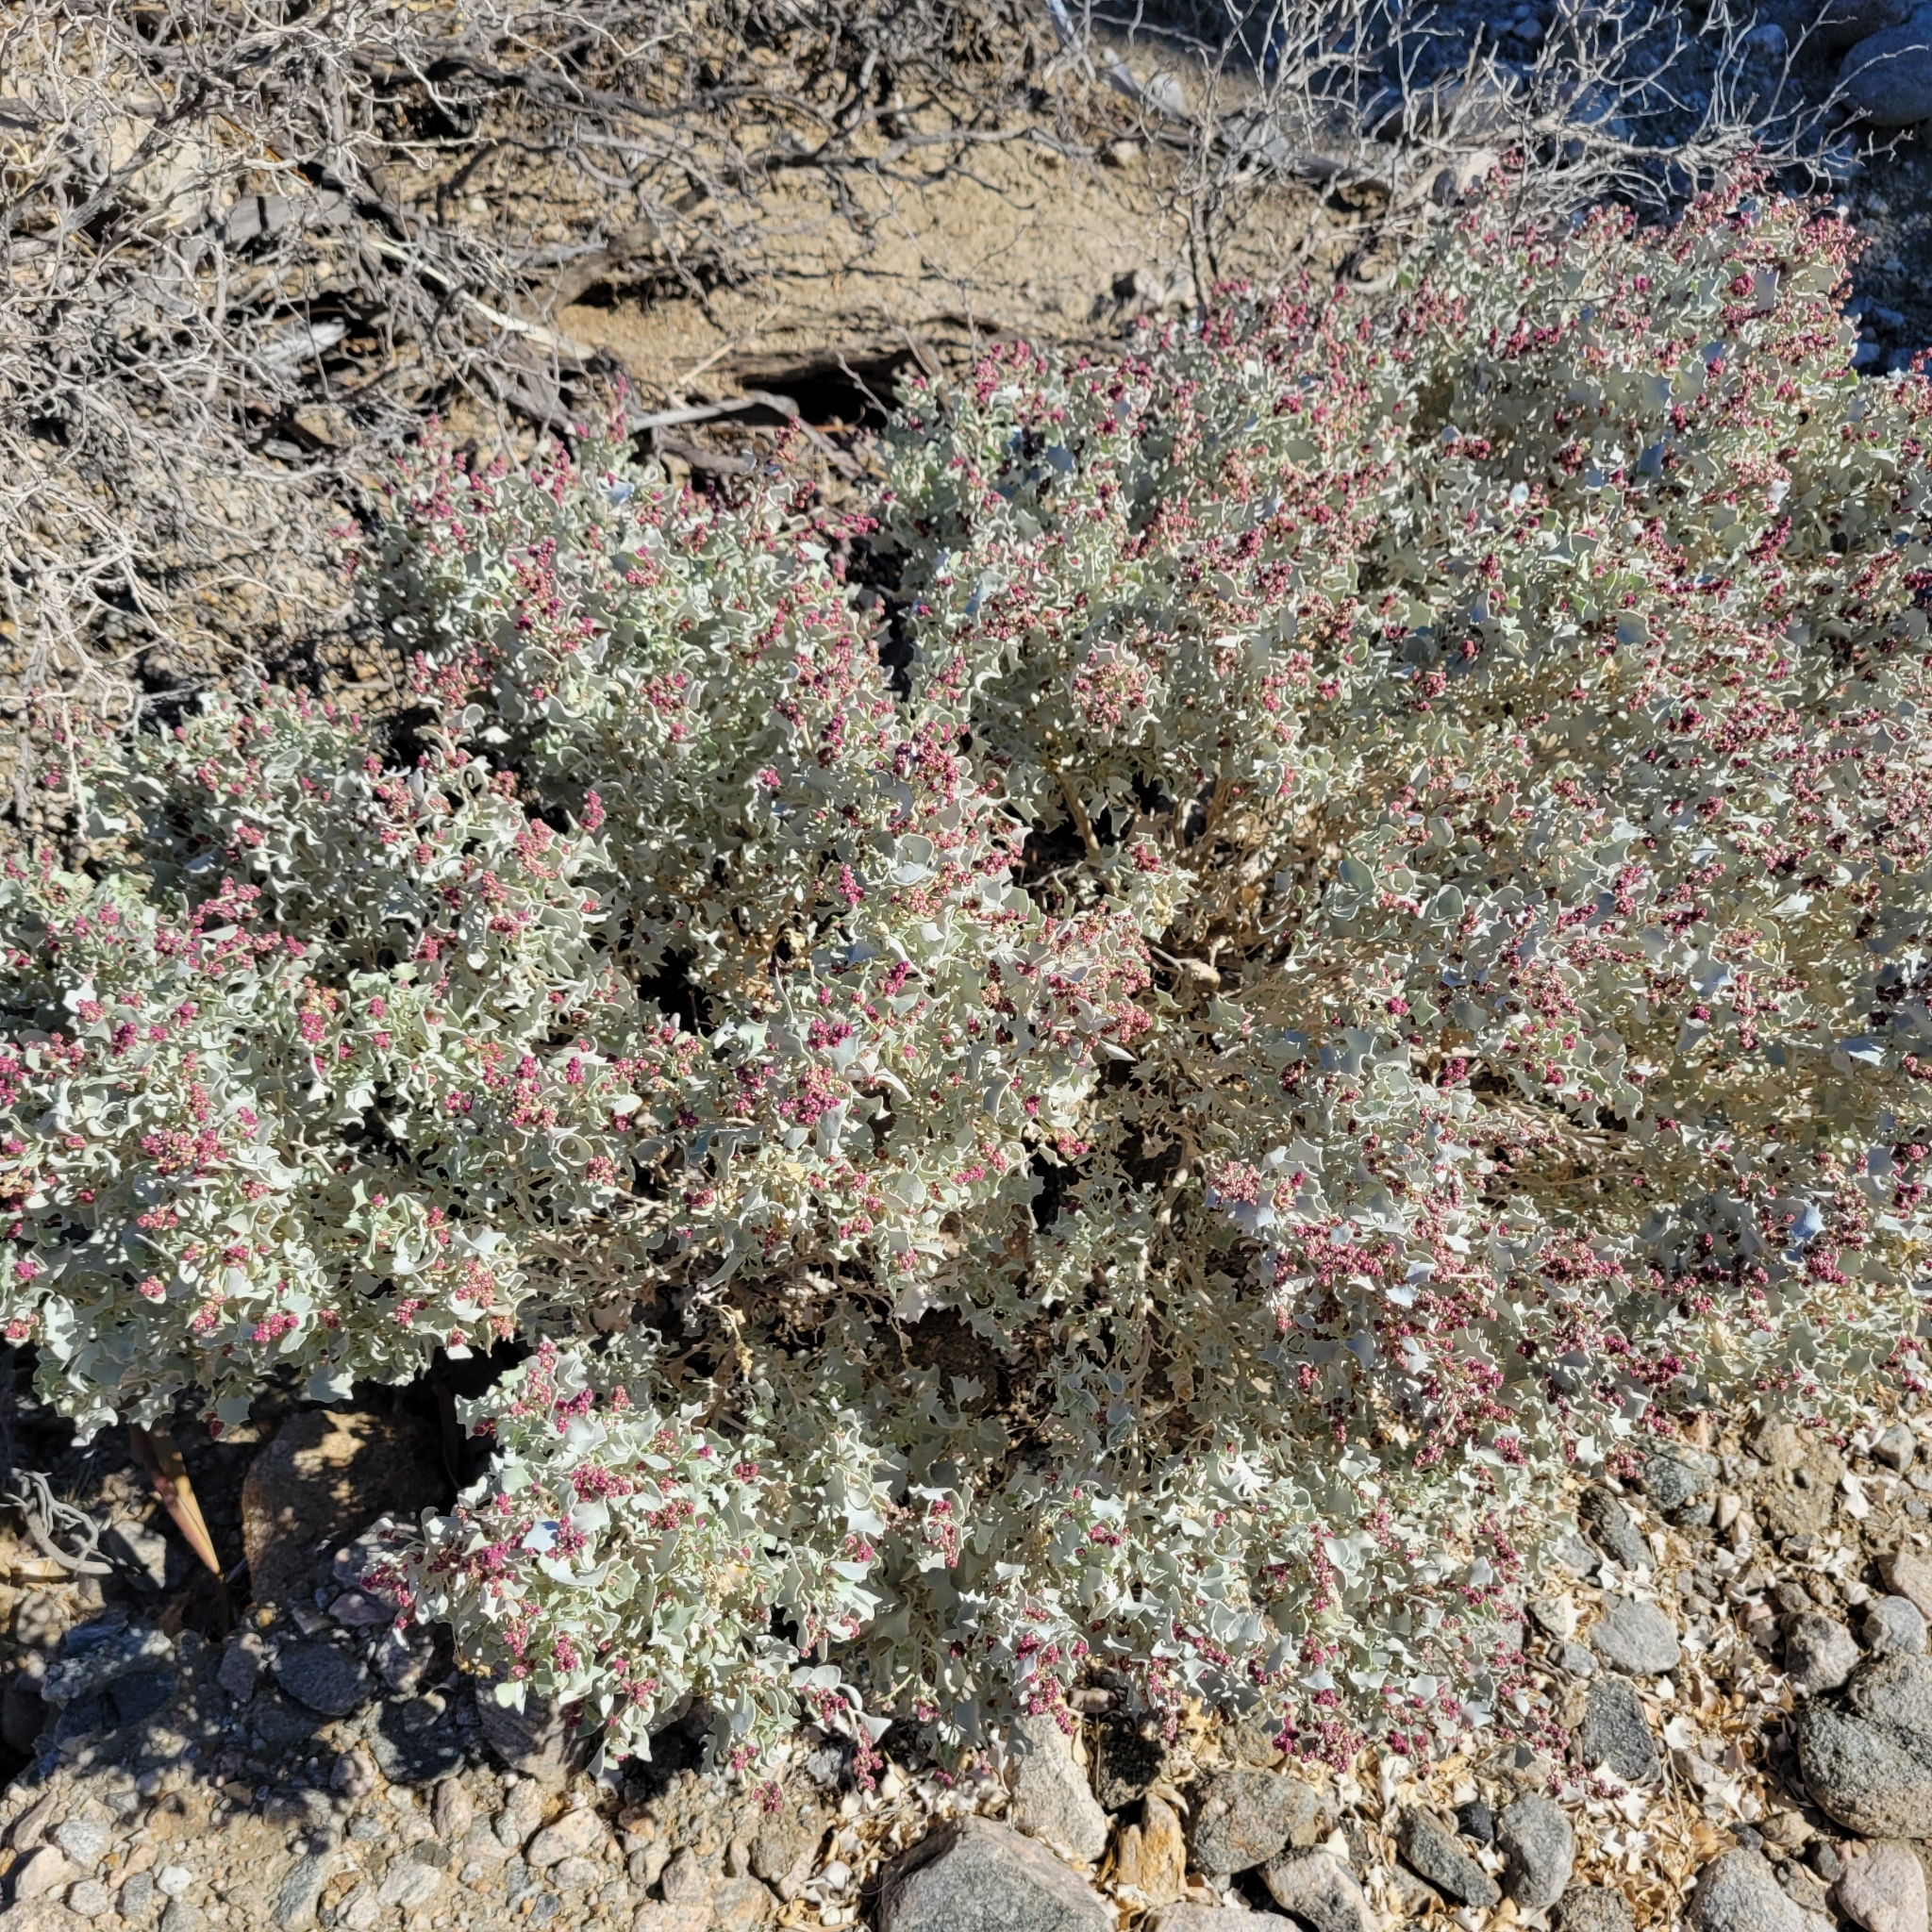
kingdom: Plantae
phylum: Tracheophyta
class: Magnoliopsida
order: Caryophyllales
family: Amaranthaceae
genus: Atriplex
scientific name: Atriplex hymenelytra
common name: Desert-holly
